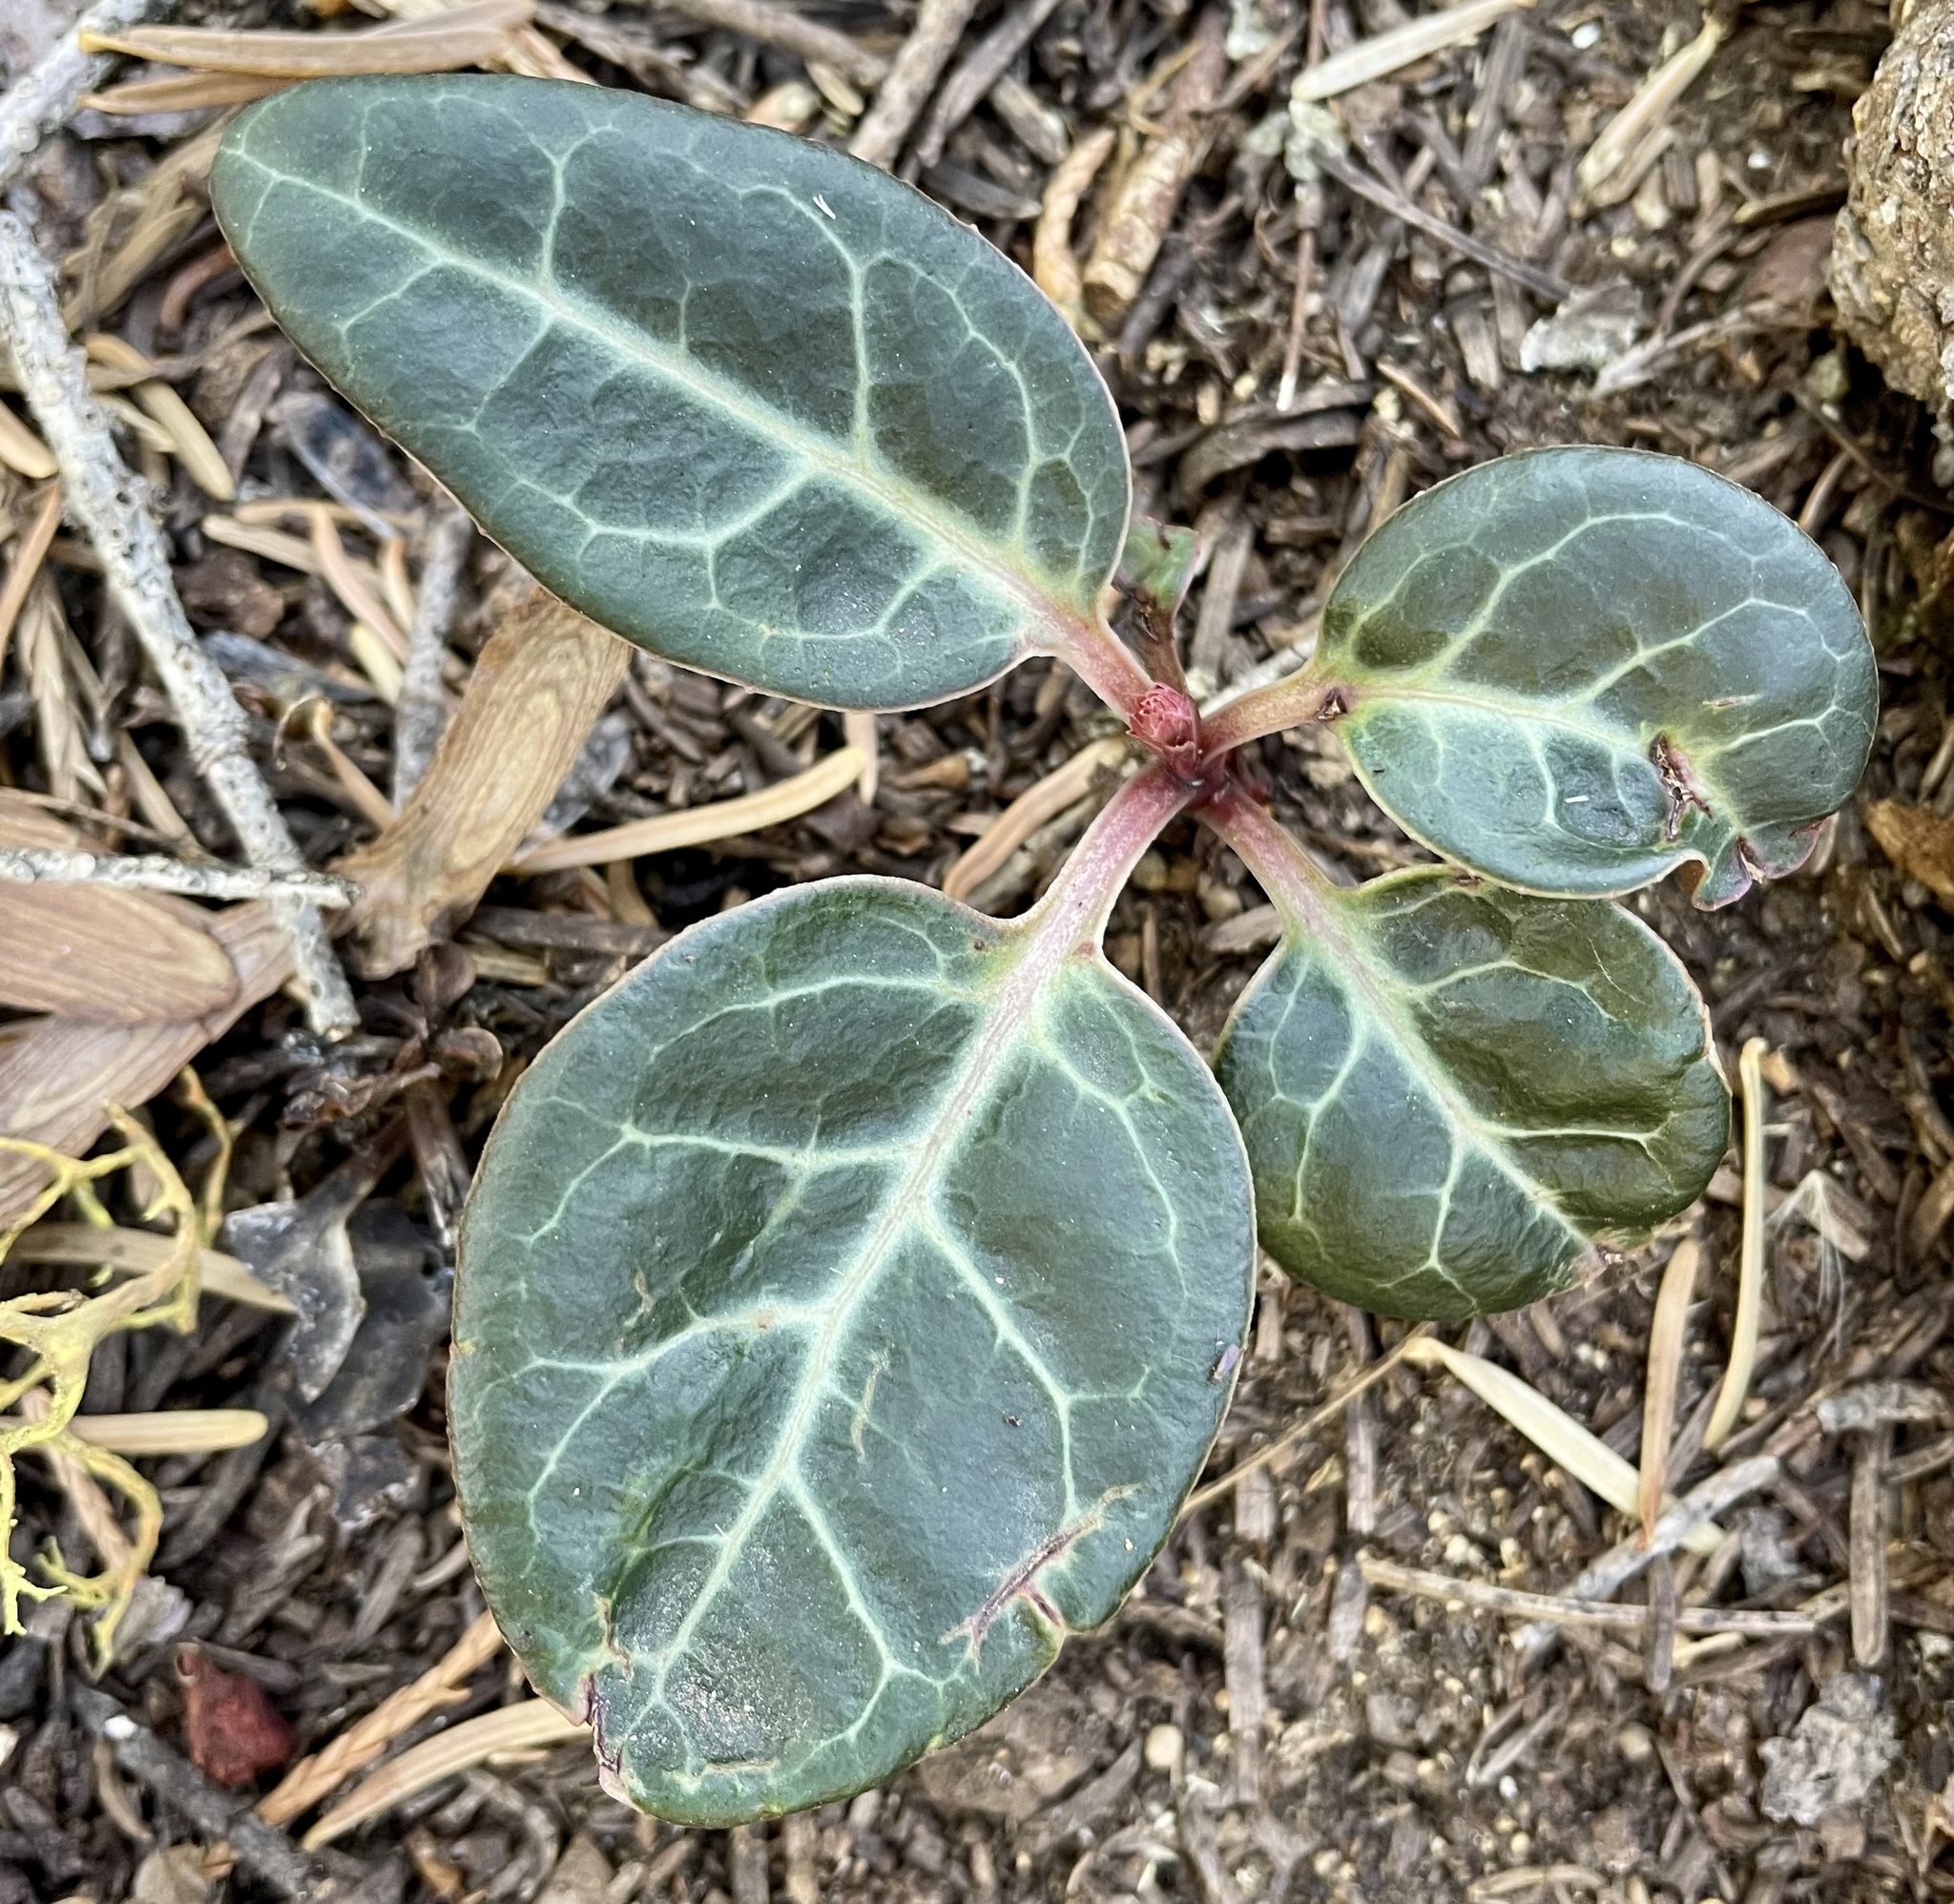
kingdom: Plantae
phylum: Tracheophyta
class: Magnoliopsida
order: Ericales
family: Ericaceae
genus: Pyrola
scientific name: Pyrola picta
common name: White-vein wintergreen
